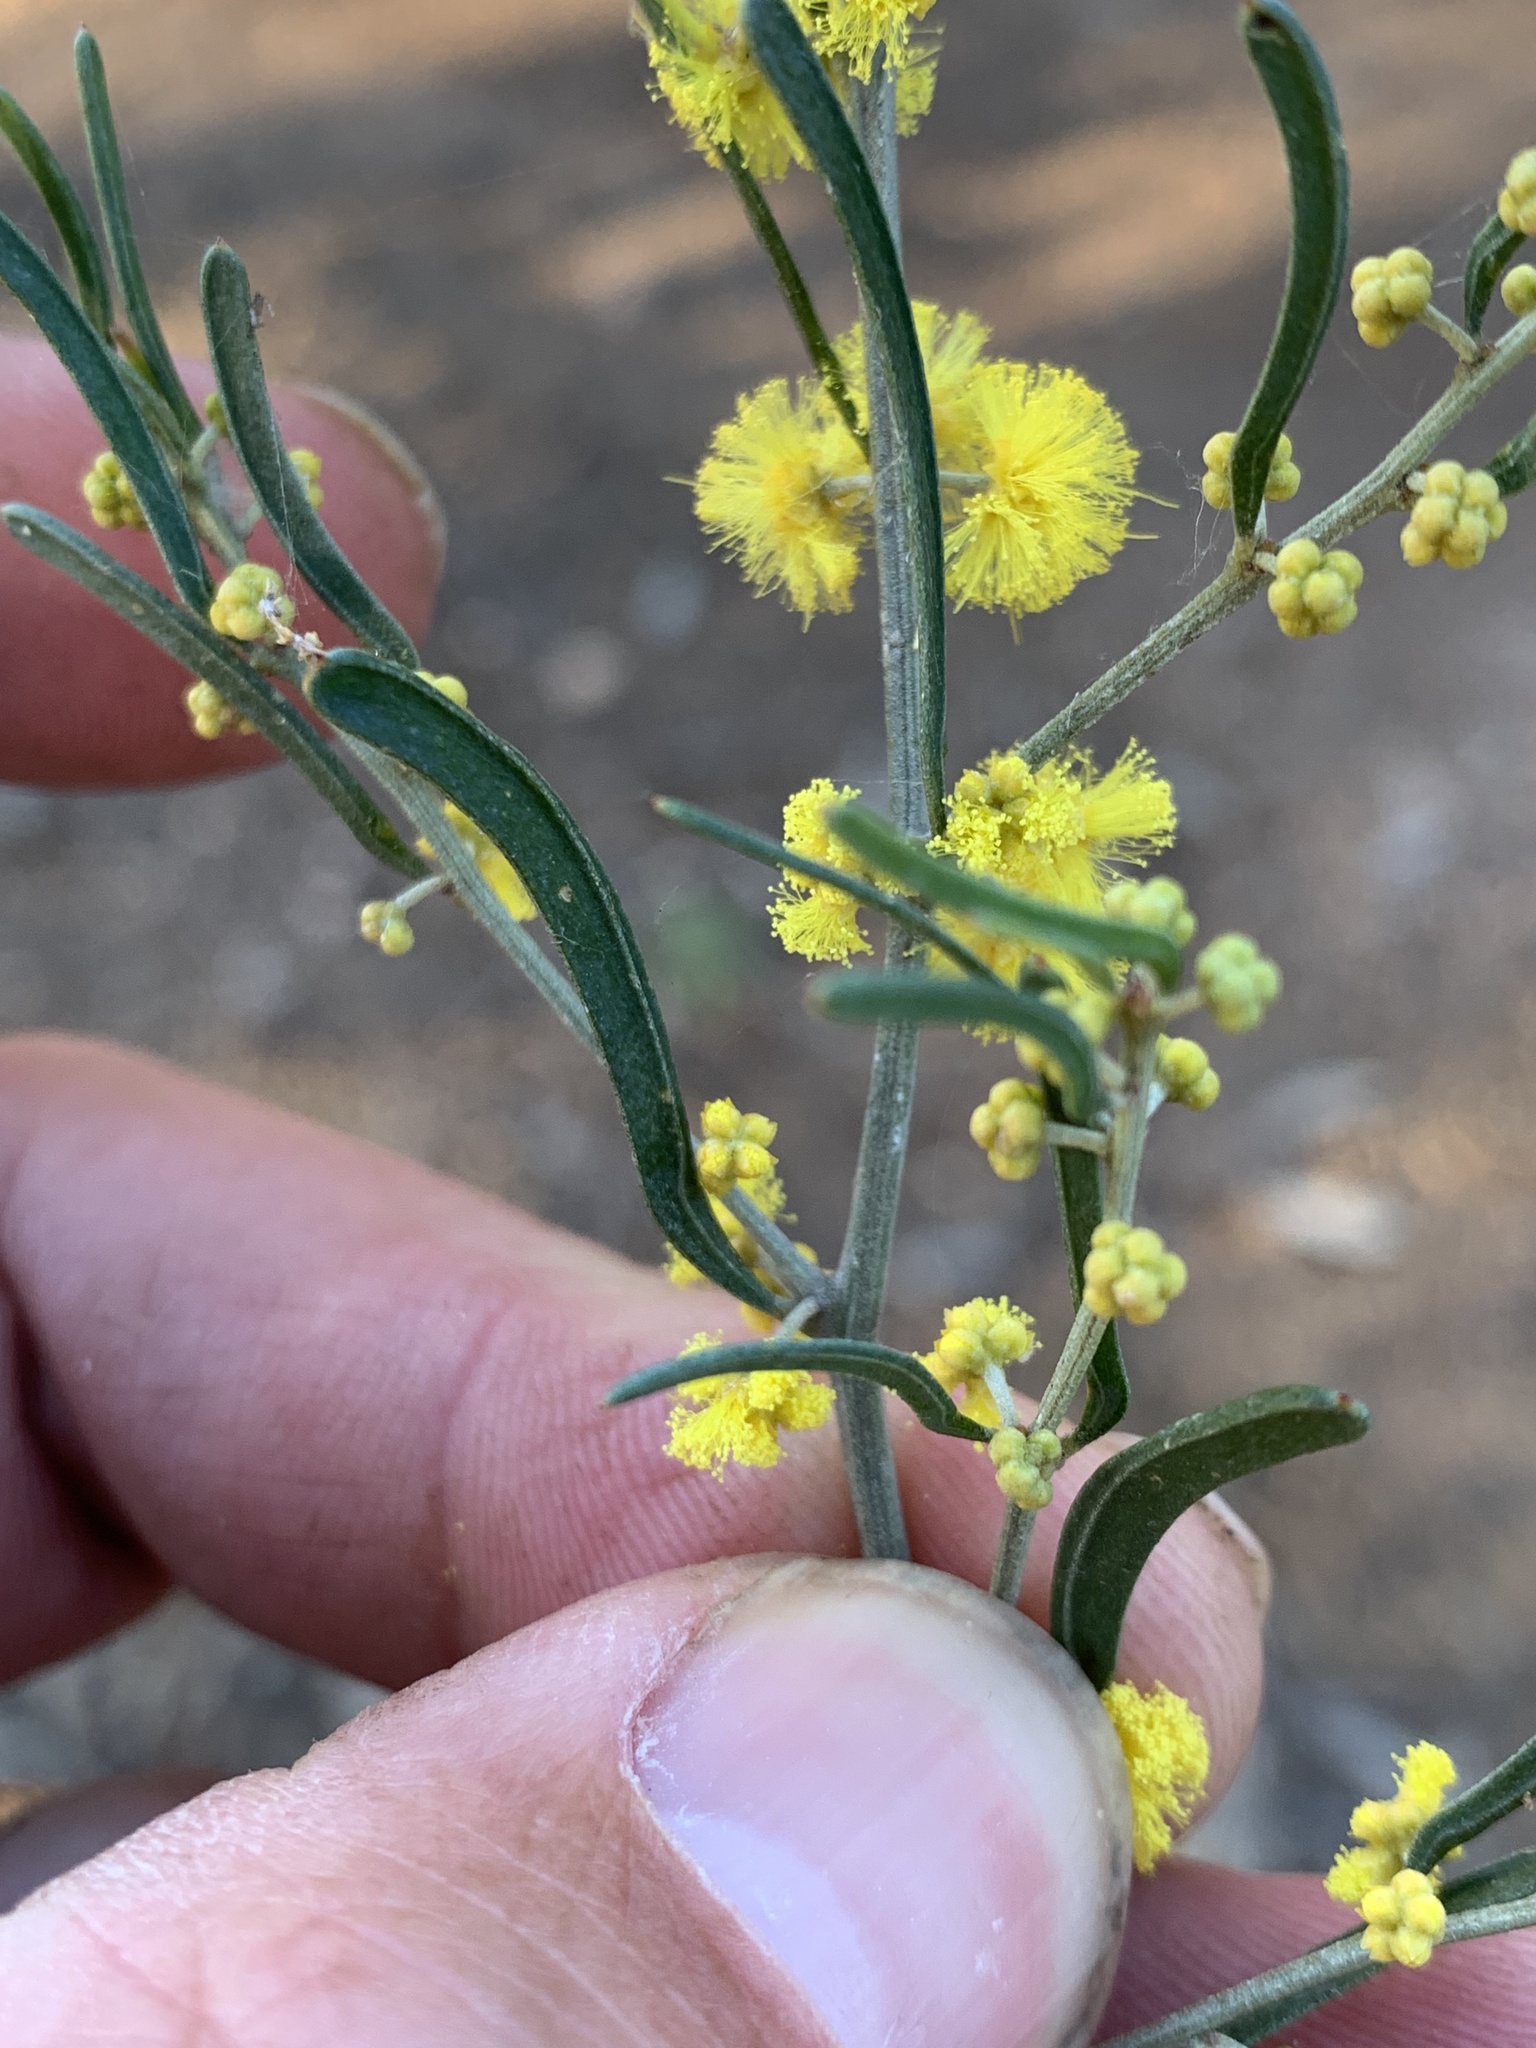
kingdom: Plantae
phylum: Tracheophyta
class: Magnoliopsida
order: Fabales
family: Fabaceae
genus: Acacia
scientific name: Acacia flexifolia
